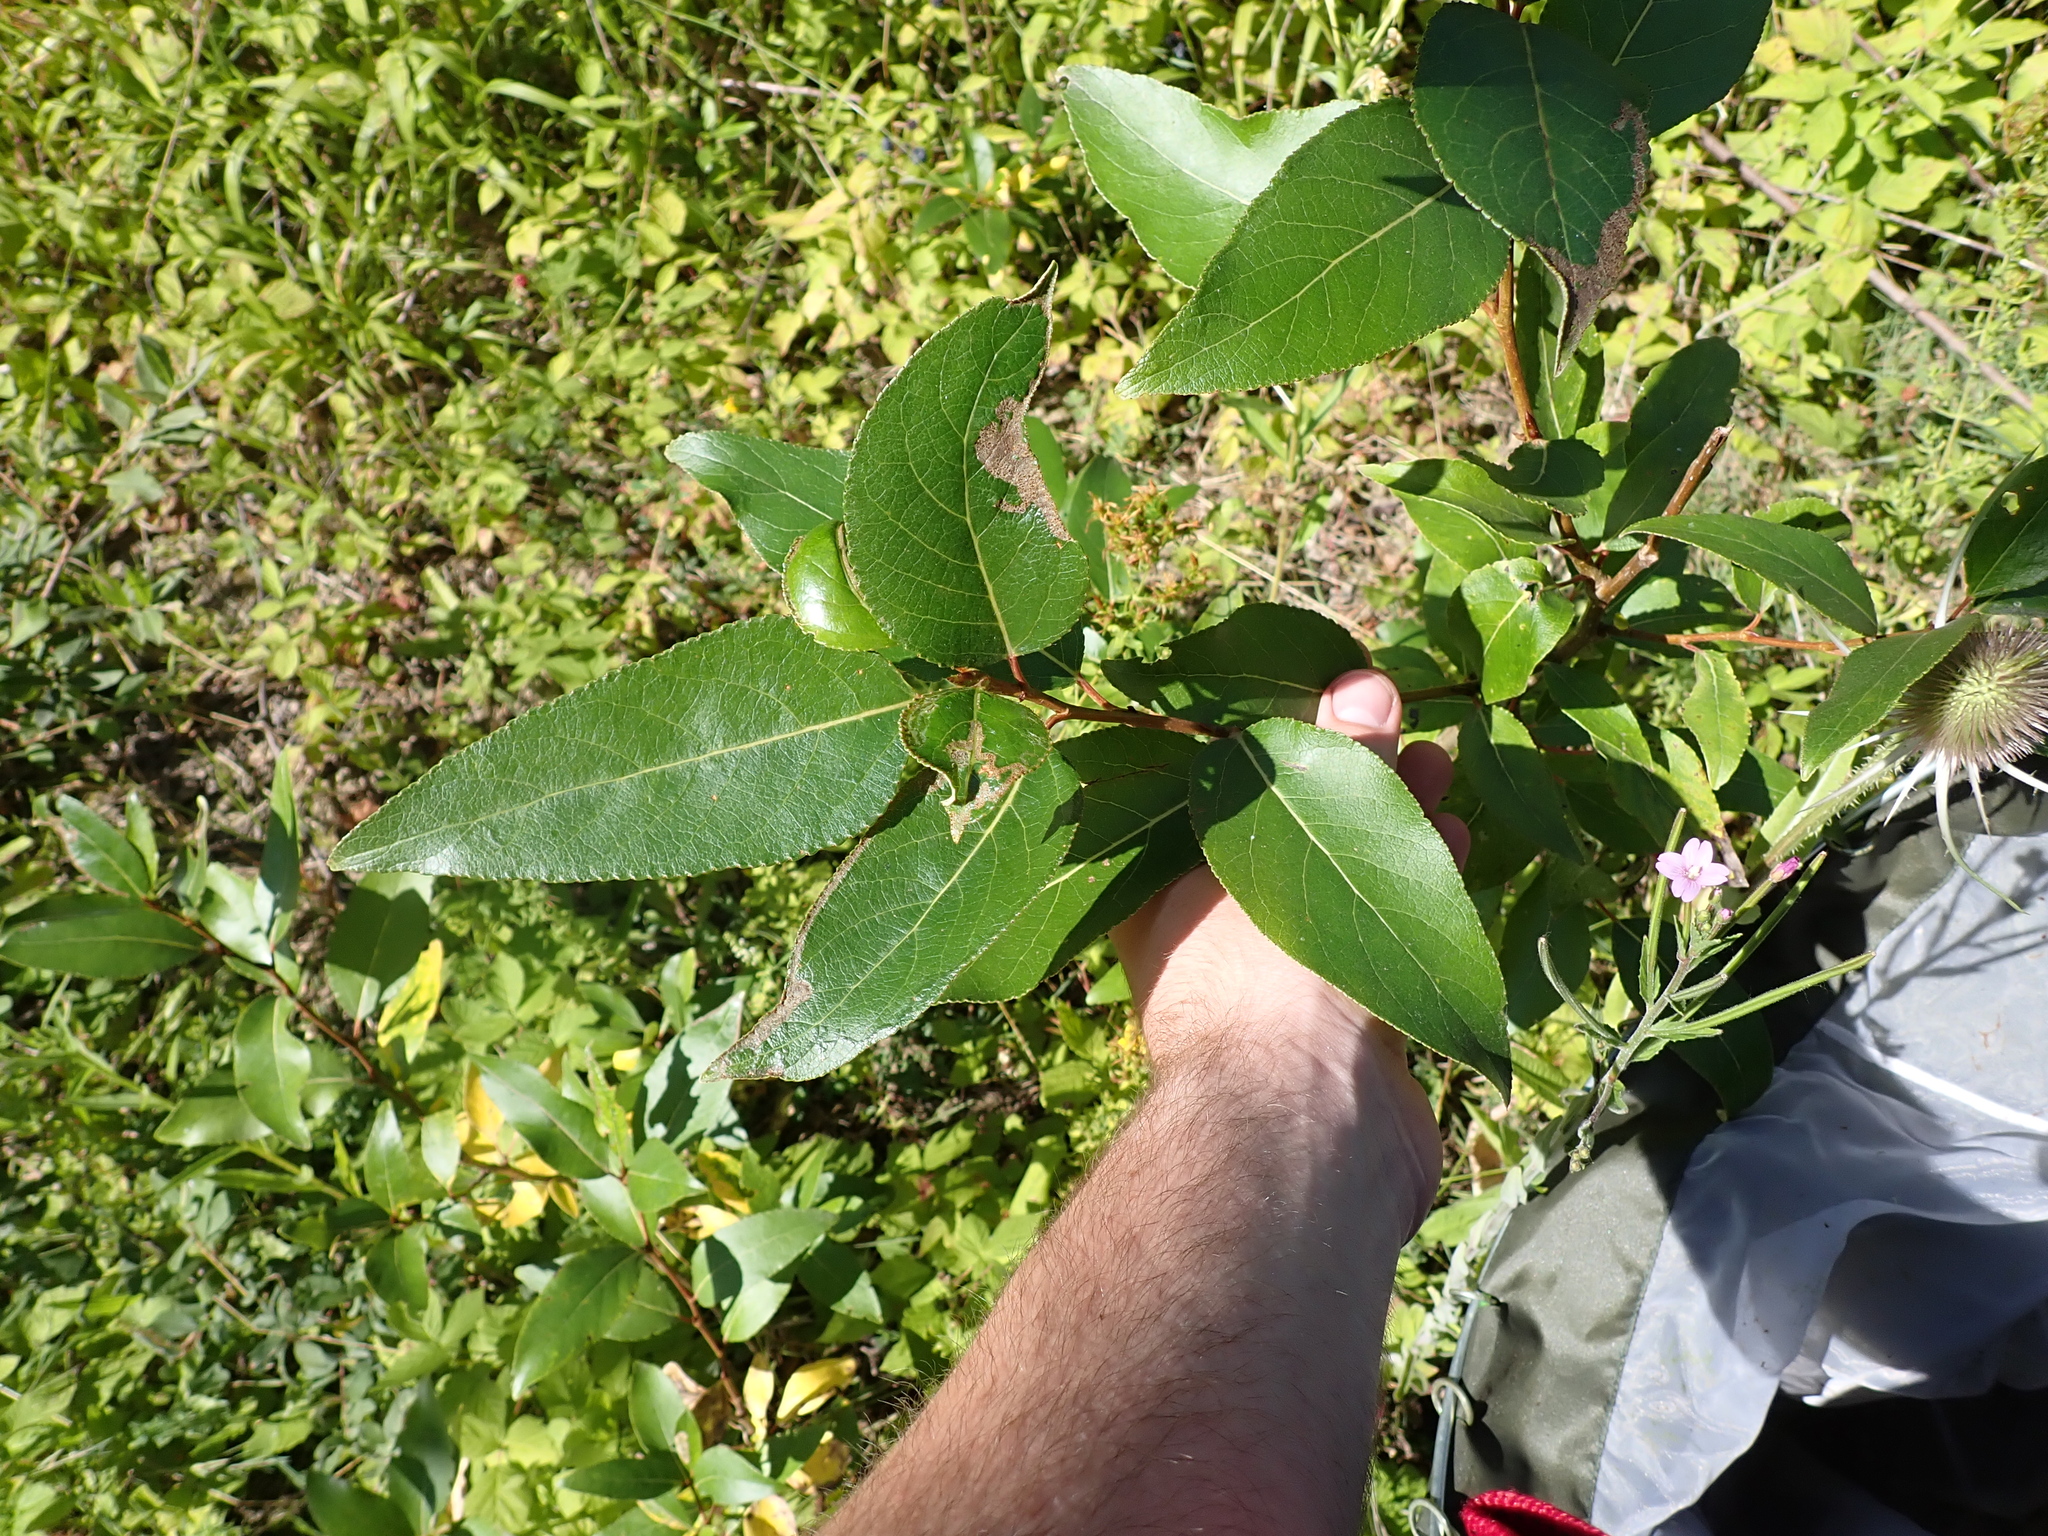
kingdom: Plantae
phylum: Tracheophyta
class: Magnoliopsida
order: Malpighiales
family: Salicaceae
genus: Populus
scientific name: Populus trichocarpa
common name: Black cottonwood
